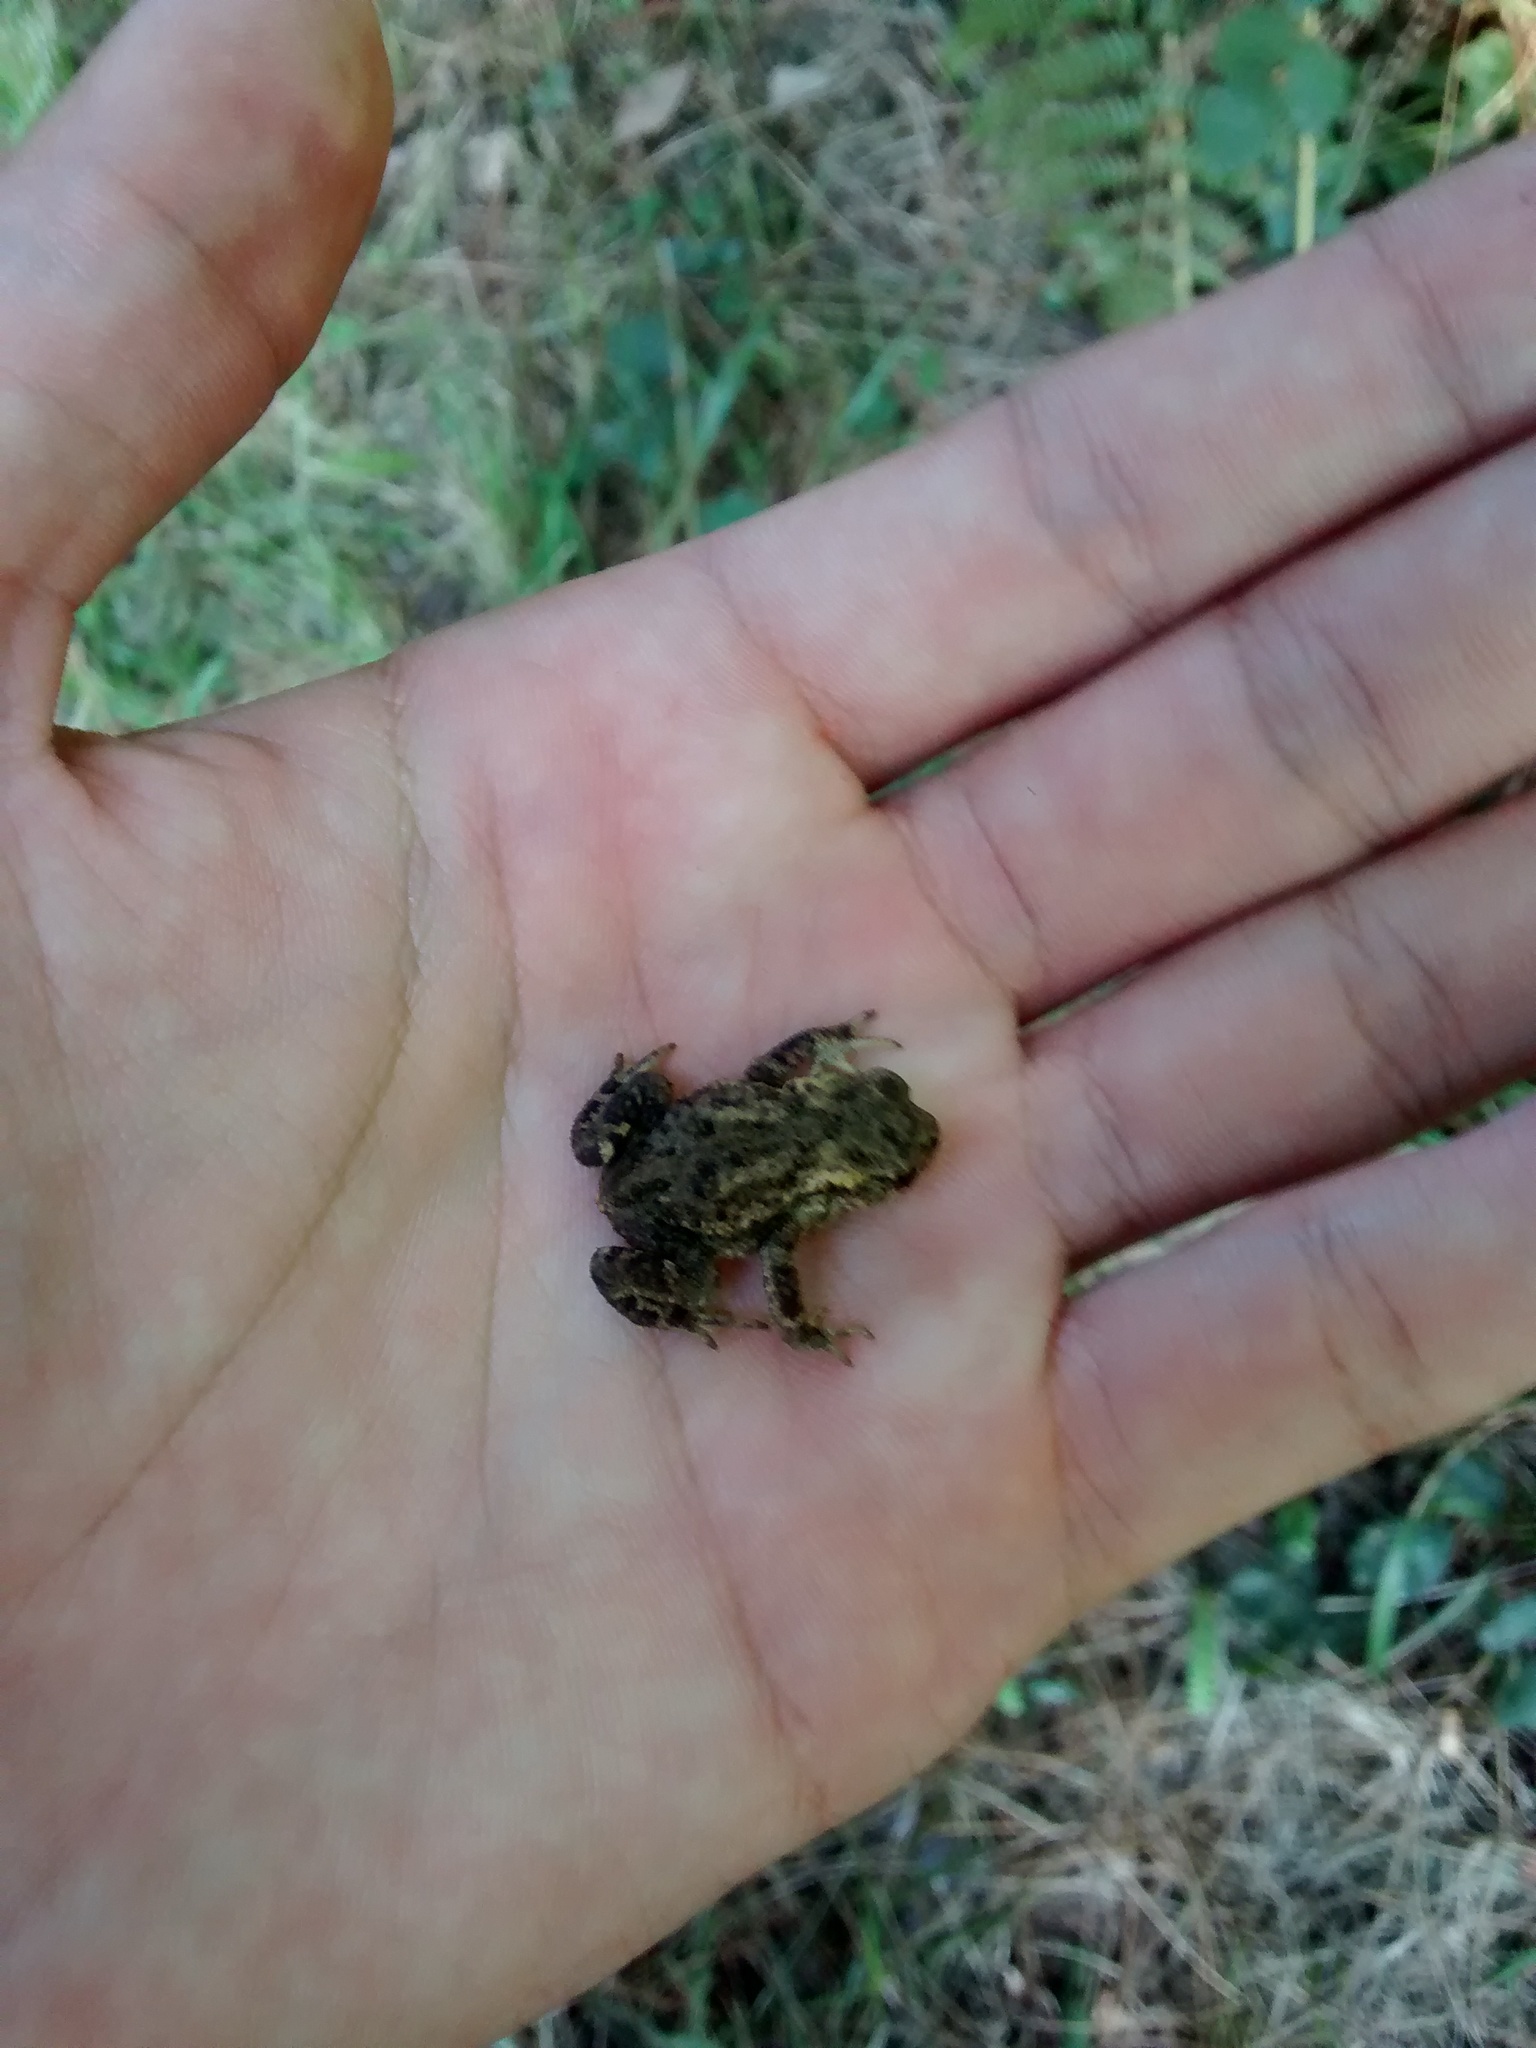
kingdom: Animalia
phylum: Chordata
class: Amphibia
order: Anura
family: Bufonidae
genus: Bufo
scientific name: Bufo spinosus
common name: Western common toad
